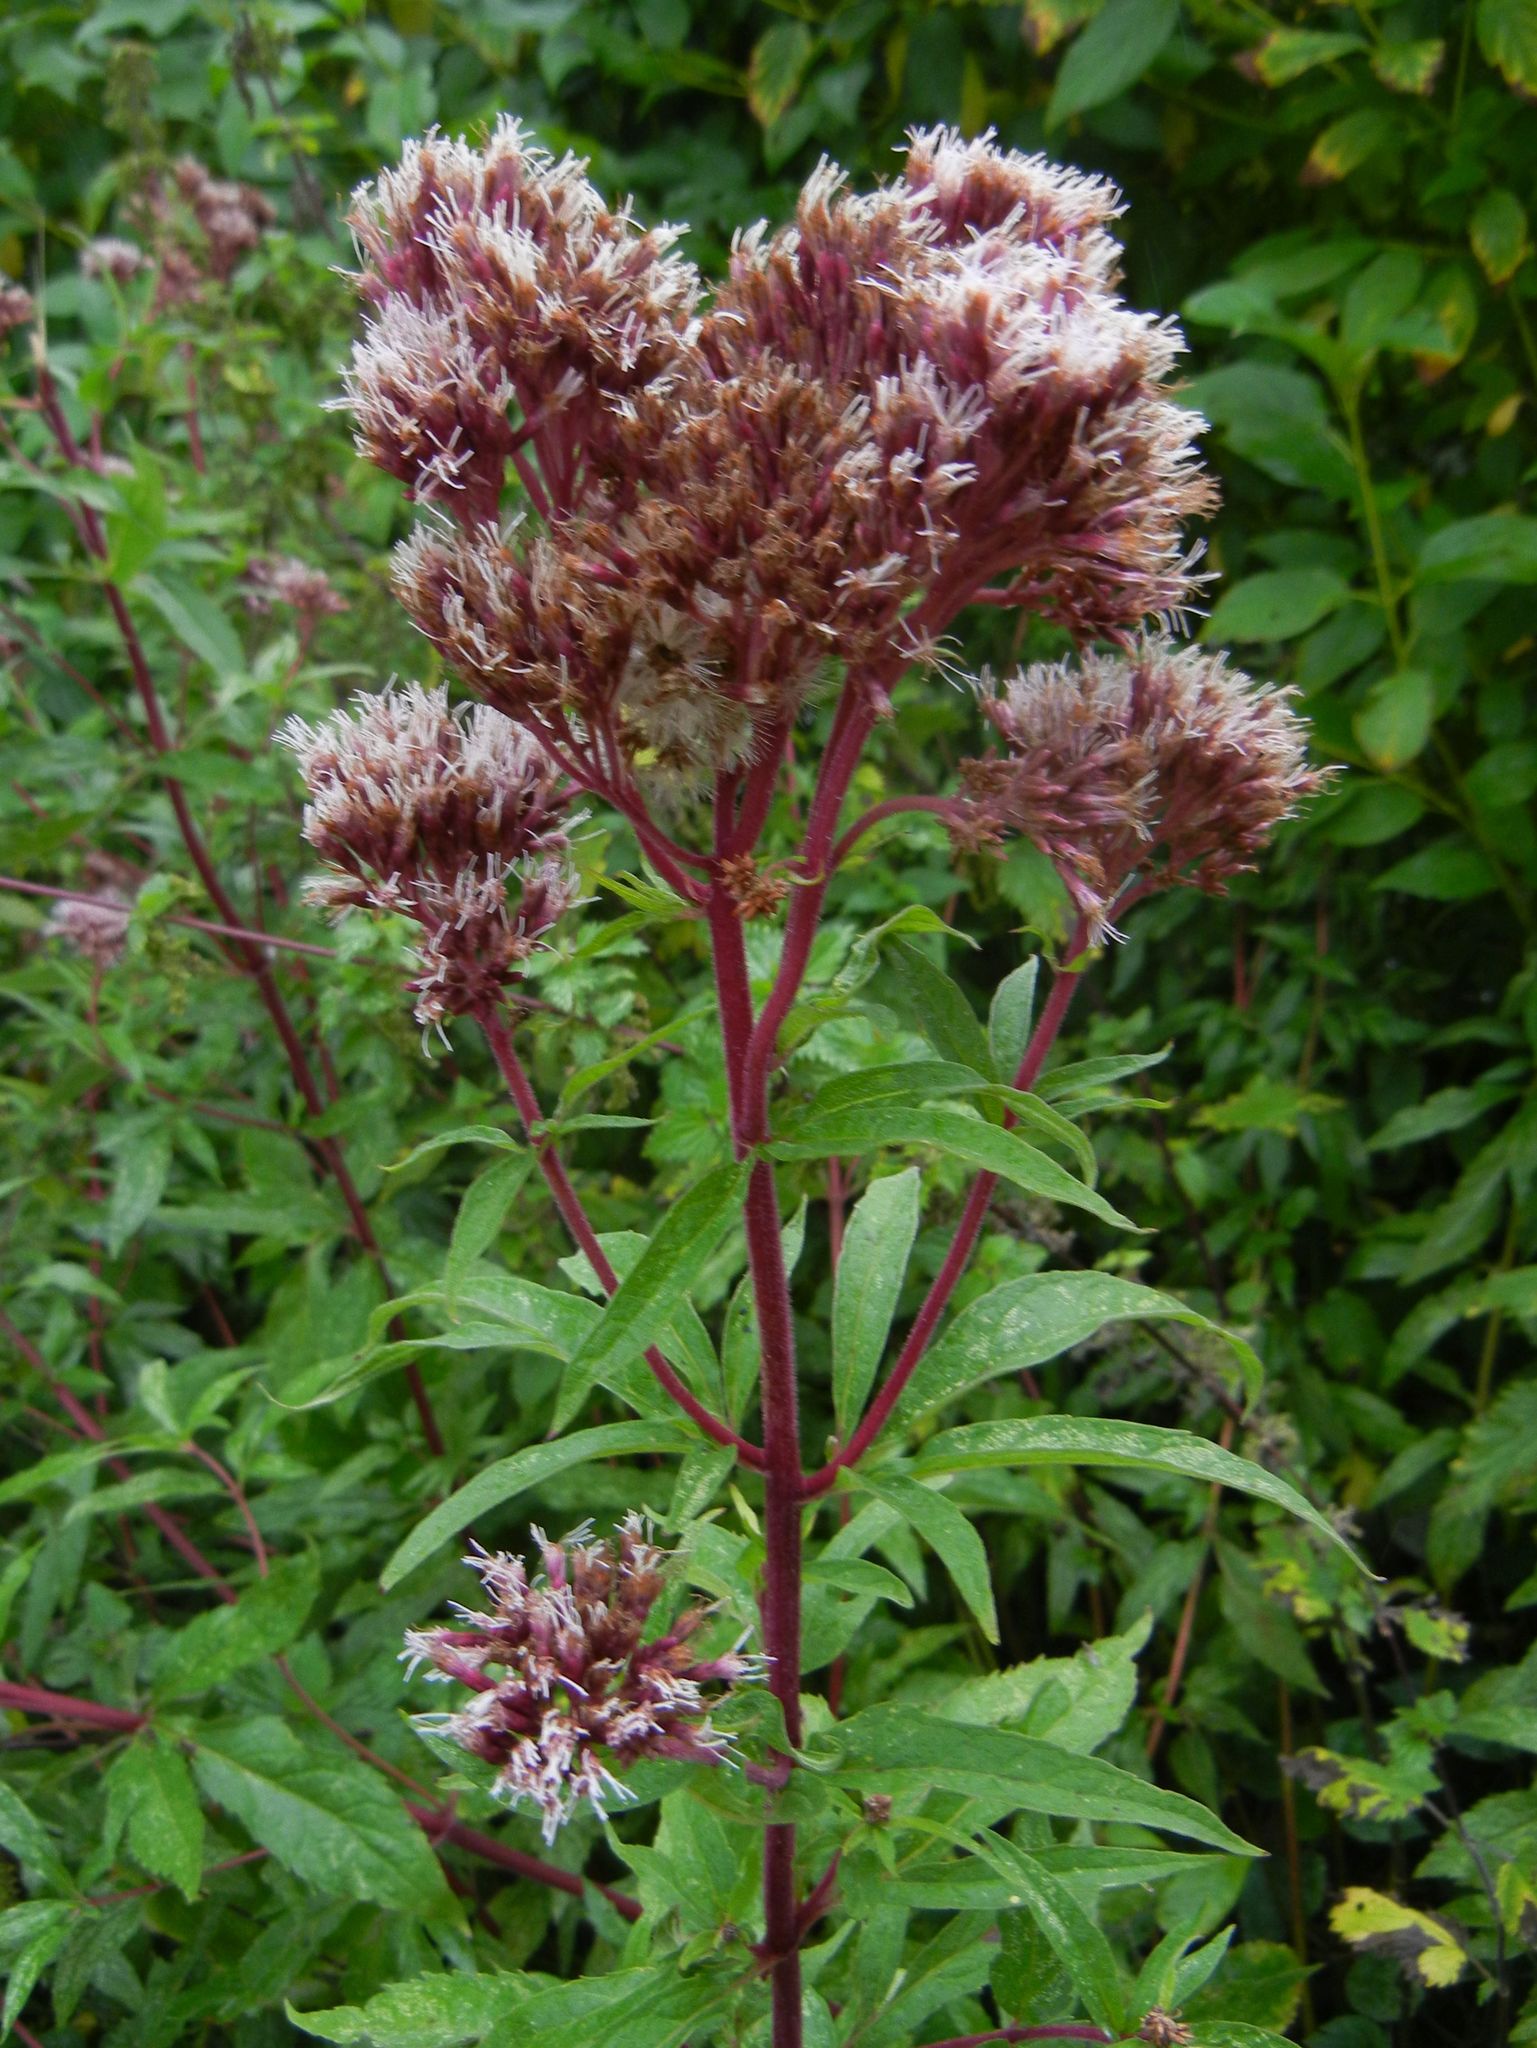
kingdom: Plantae
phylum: Tracheophyta
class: Magnoliopsida
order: Asterales
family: Asteraceae
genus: Eupatorium
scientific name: Eupatorium cannabinum
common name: Hemp-agrimony
